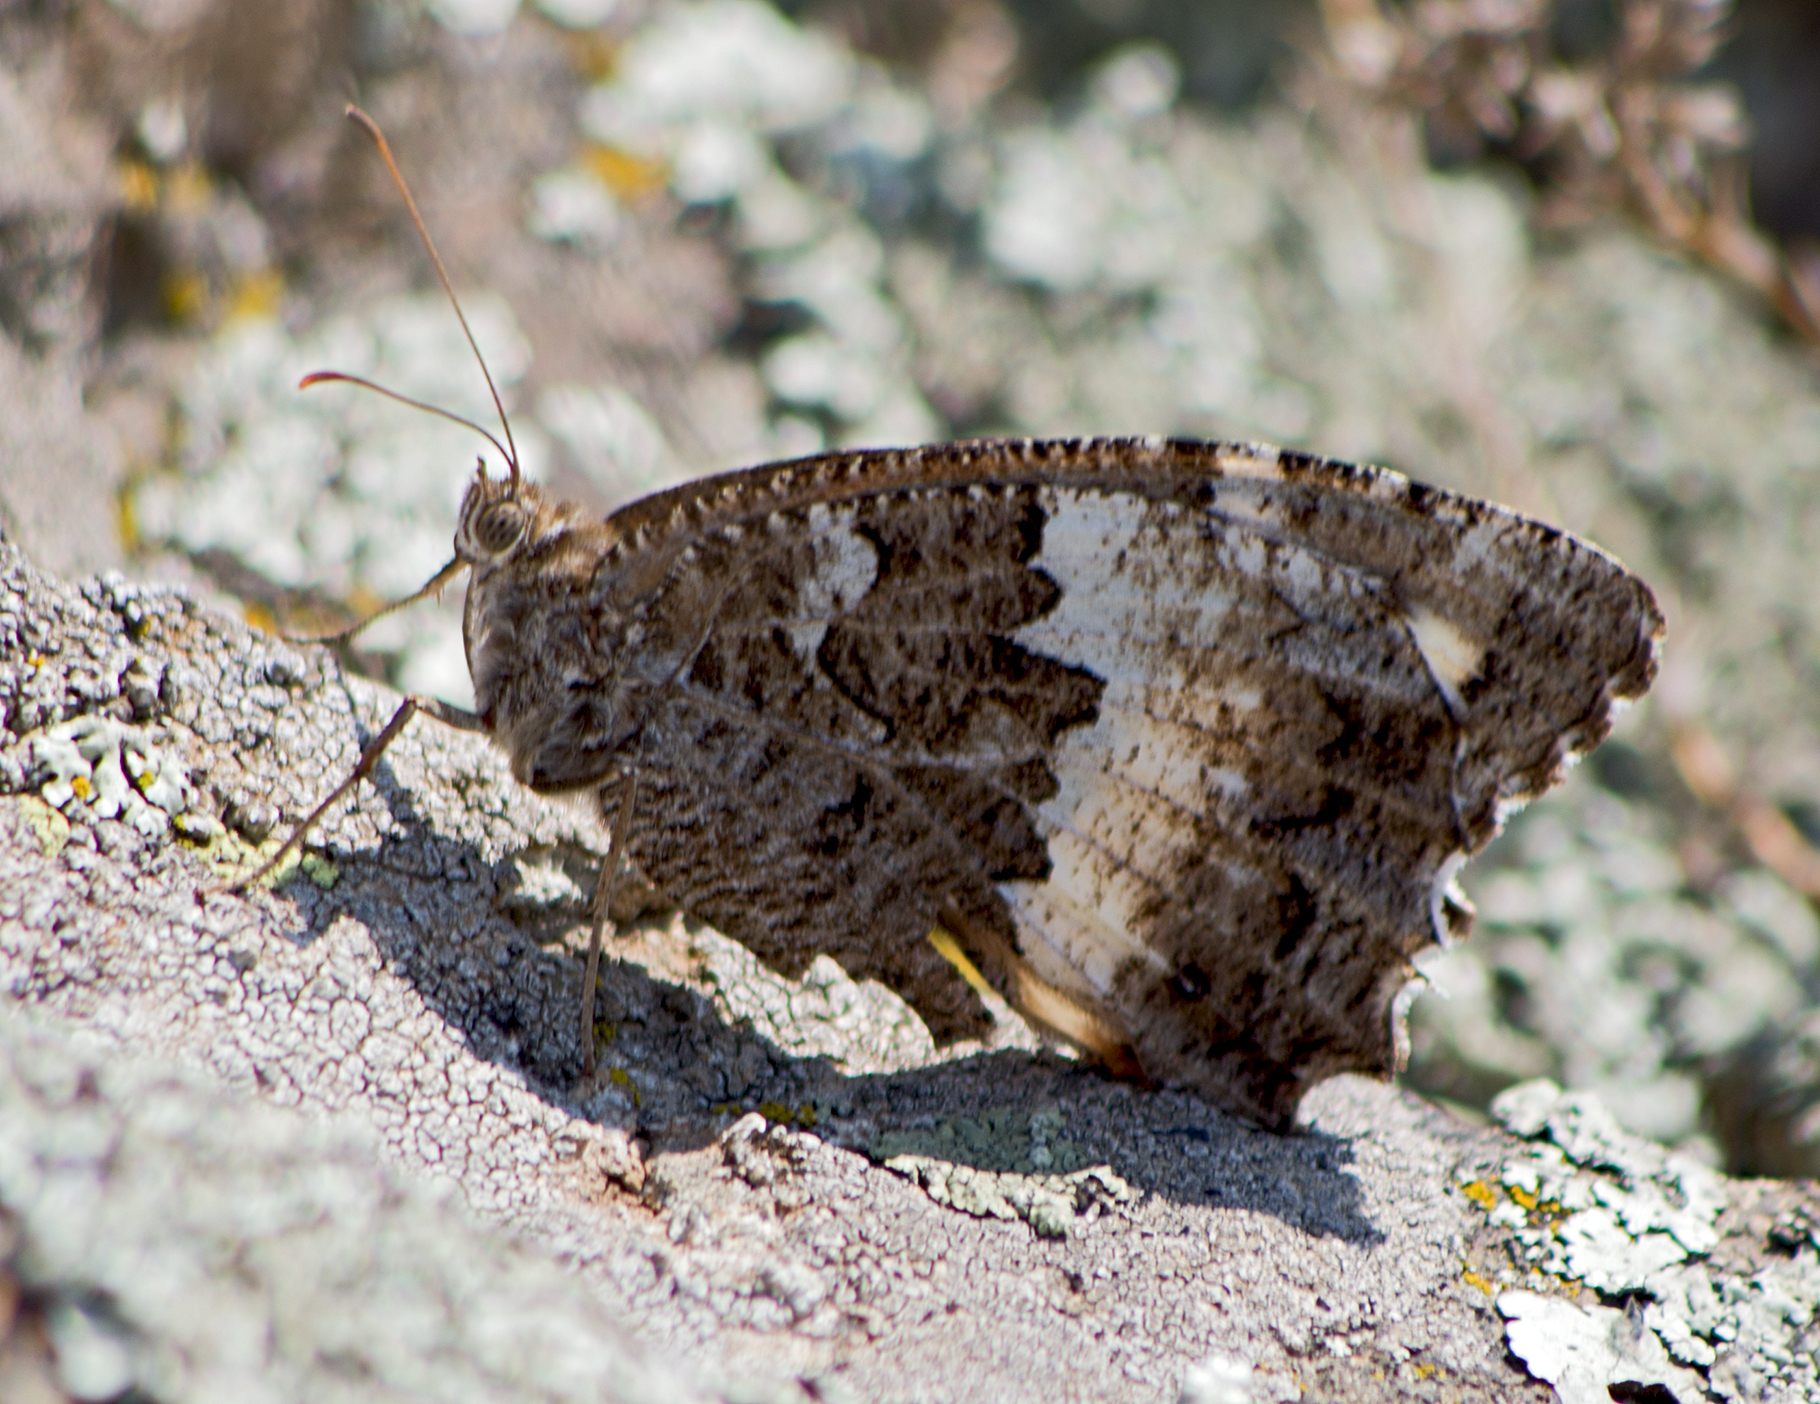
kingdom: Animalia
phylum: Arthropoda
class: Insecta
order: Lepidoptera
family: Lycaenidae
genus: Loweia
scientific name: Loweia tityrus
